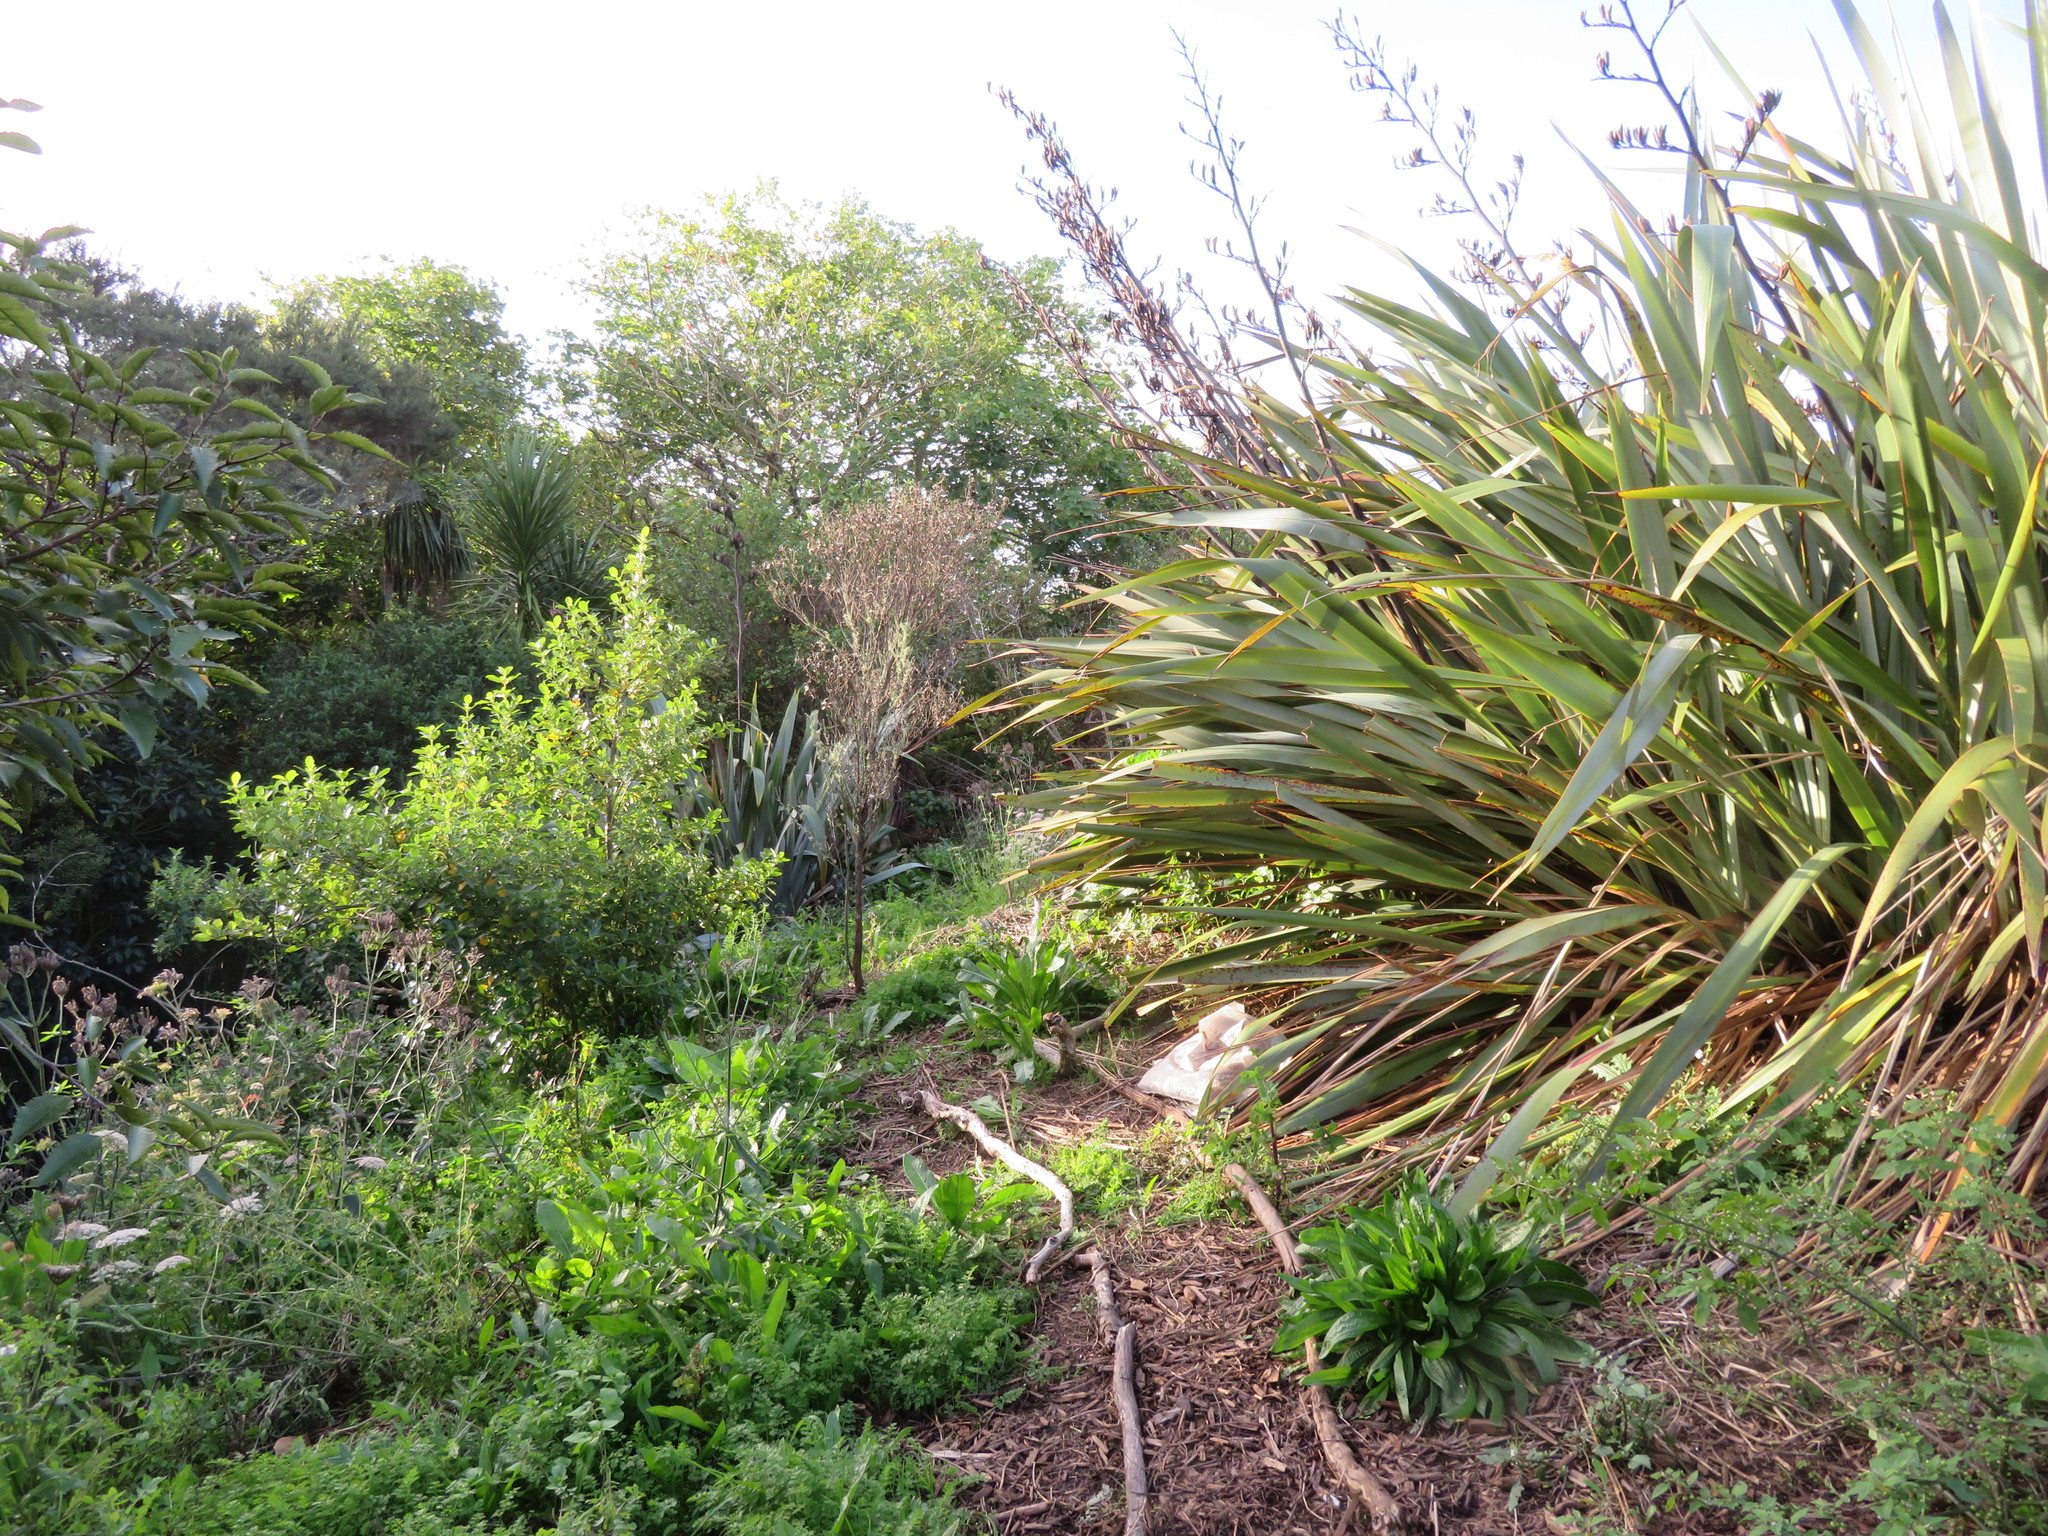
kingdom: Plantae
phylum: Tracheophyta
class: Magnoliopsida
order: Lamiales
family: Plantaginaceae
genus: Plantago
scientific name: Plantago lanceolata
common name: Ribwort plantain
